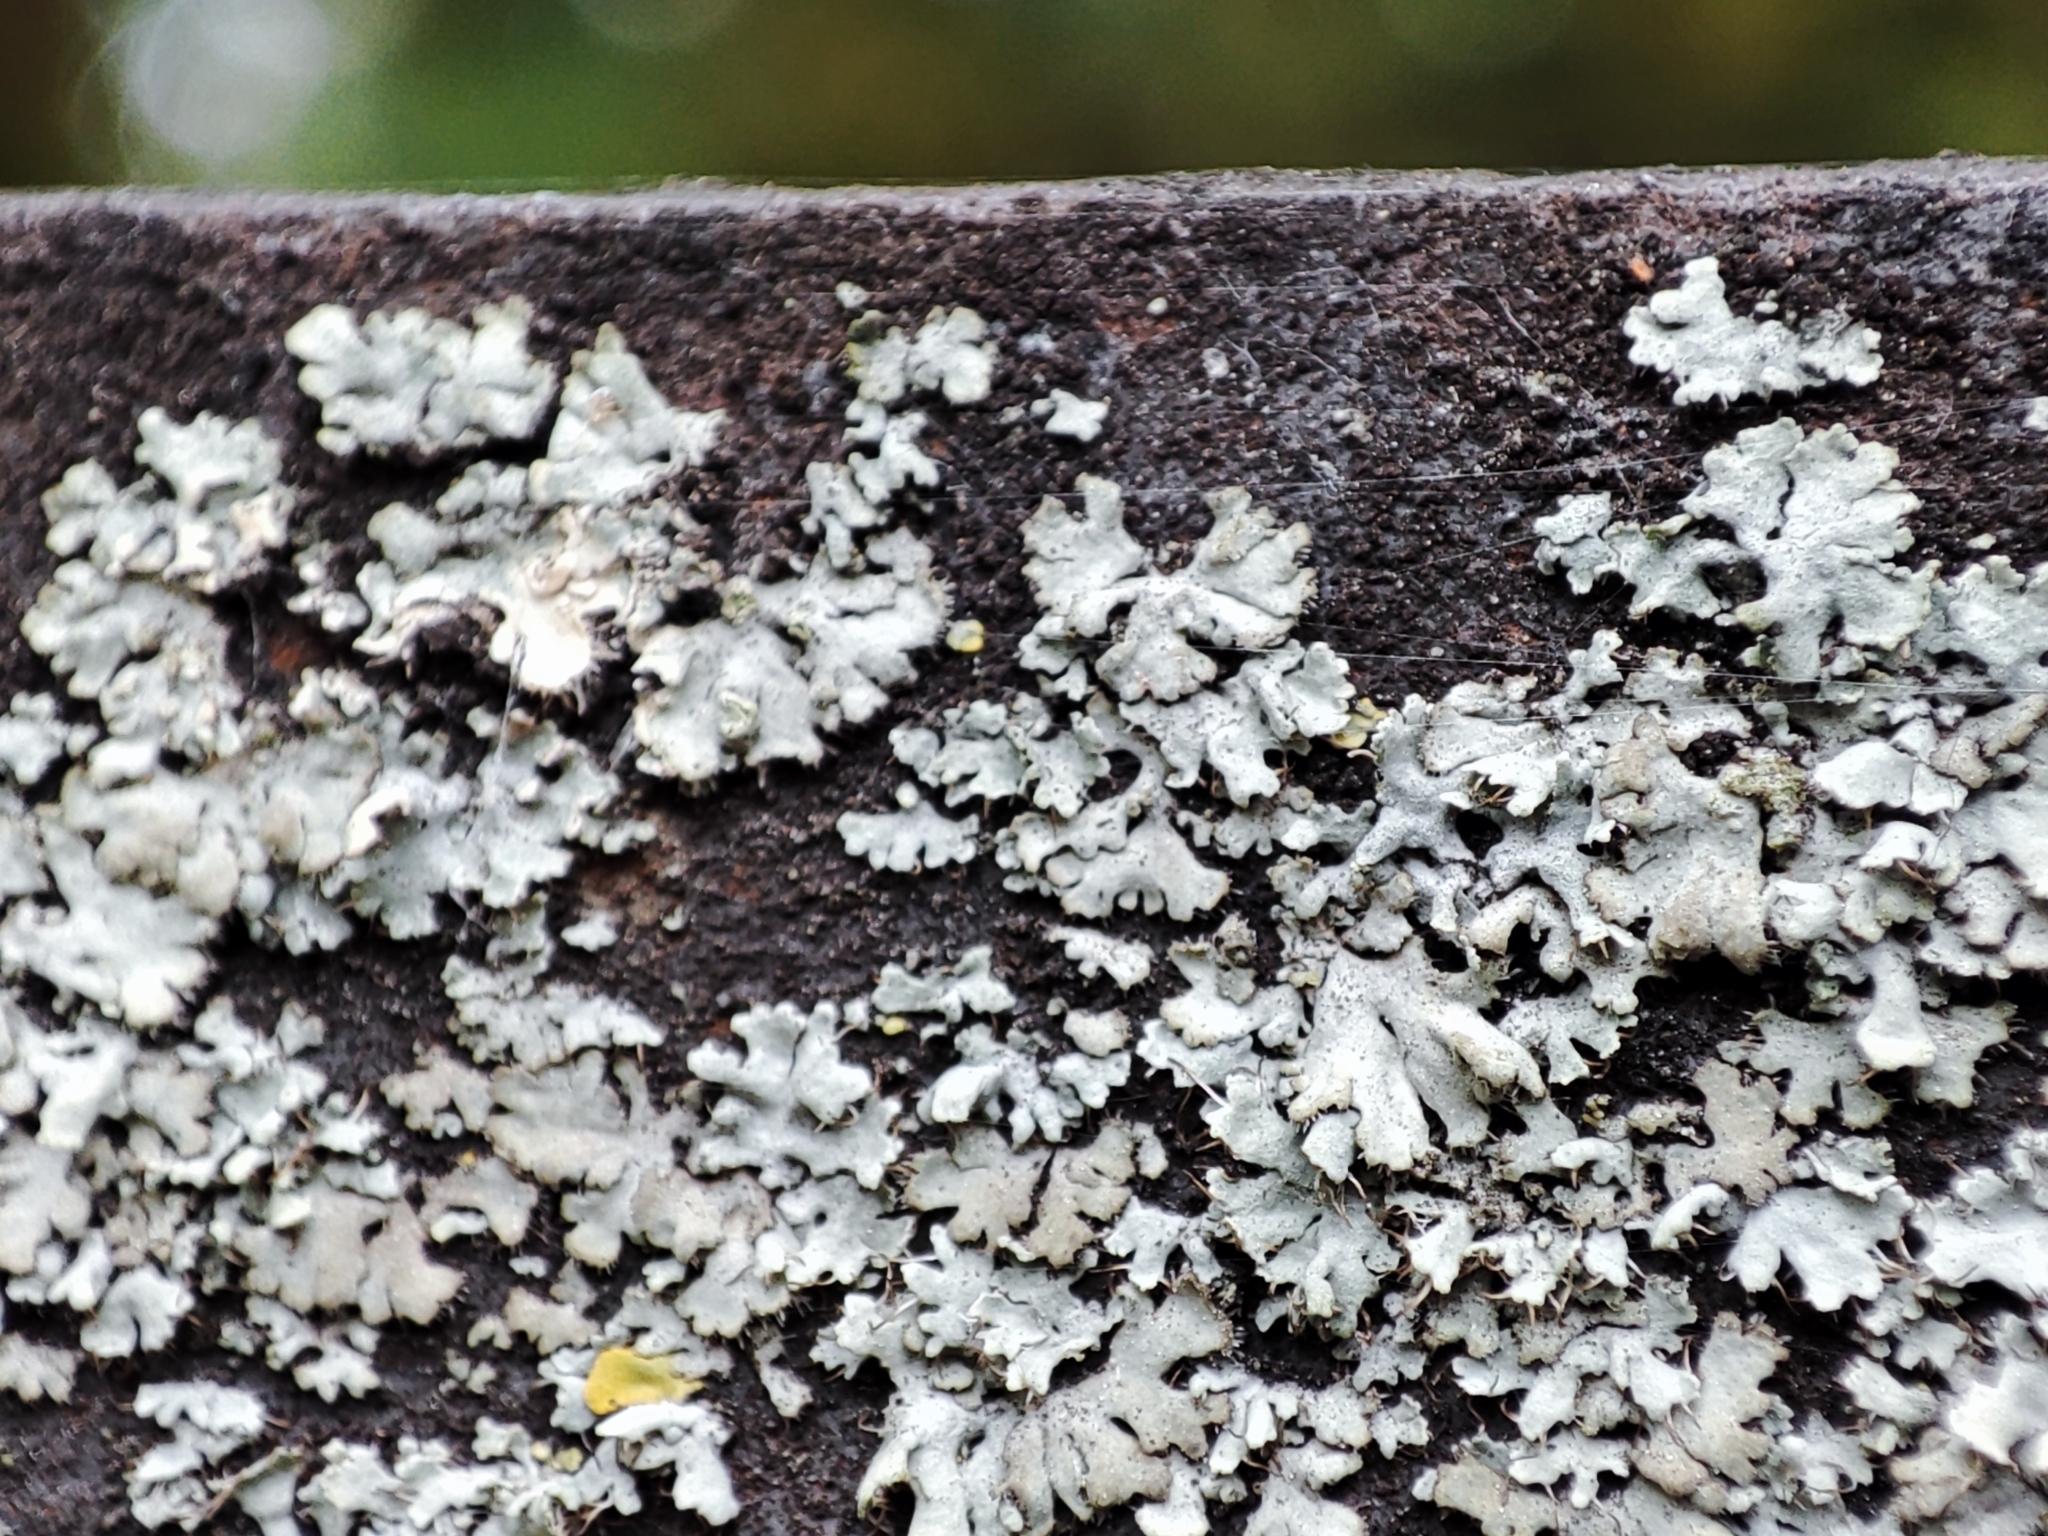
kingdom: Fungi
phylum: Ascomycota
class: Lecanoromycetes
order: Caliciales
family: Physciaceae
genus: Phaeophyscia
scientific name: Phaeophyscia orbicularis
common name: Mealy shadow lichen
